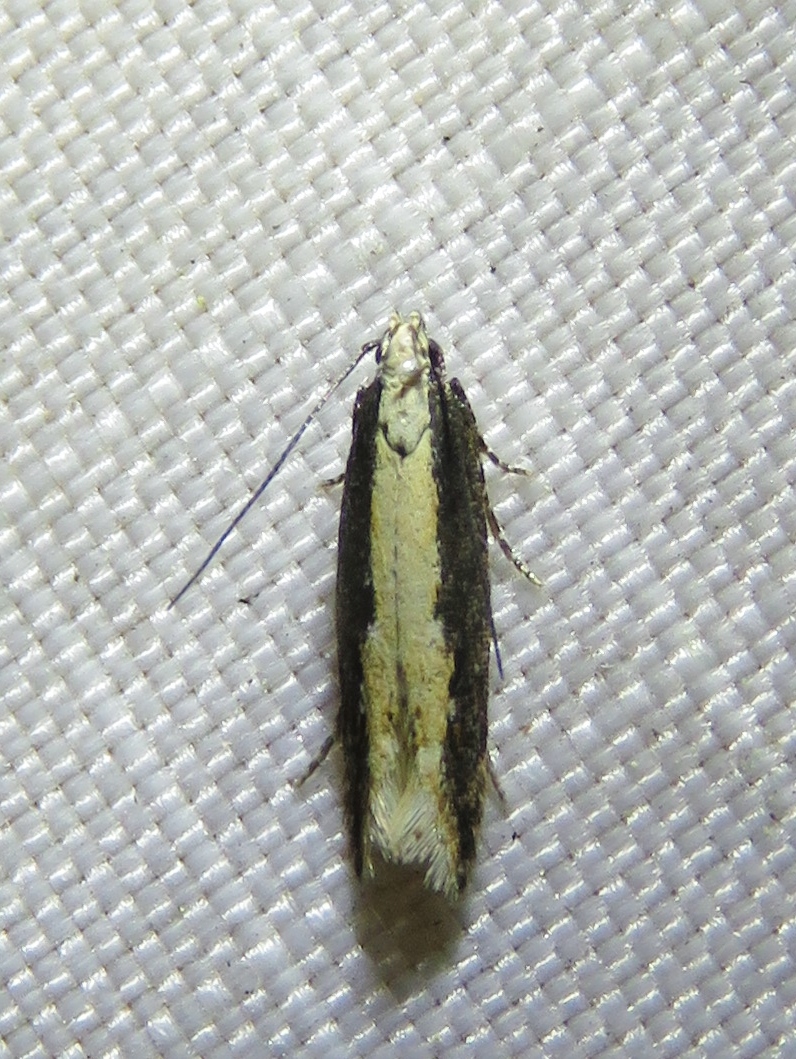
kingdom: Animalia
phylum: Arthropoda
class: Insecta
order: Lepidoptera
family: Gelechiidae
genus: Aristotelia
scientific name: Aristotelia corallina
